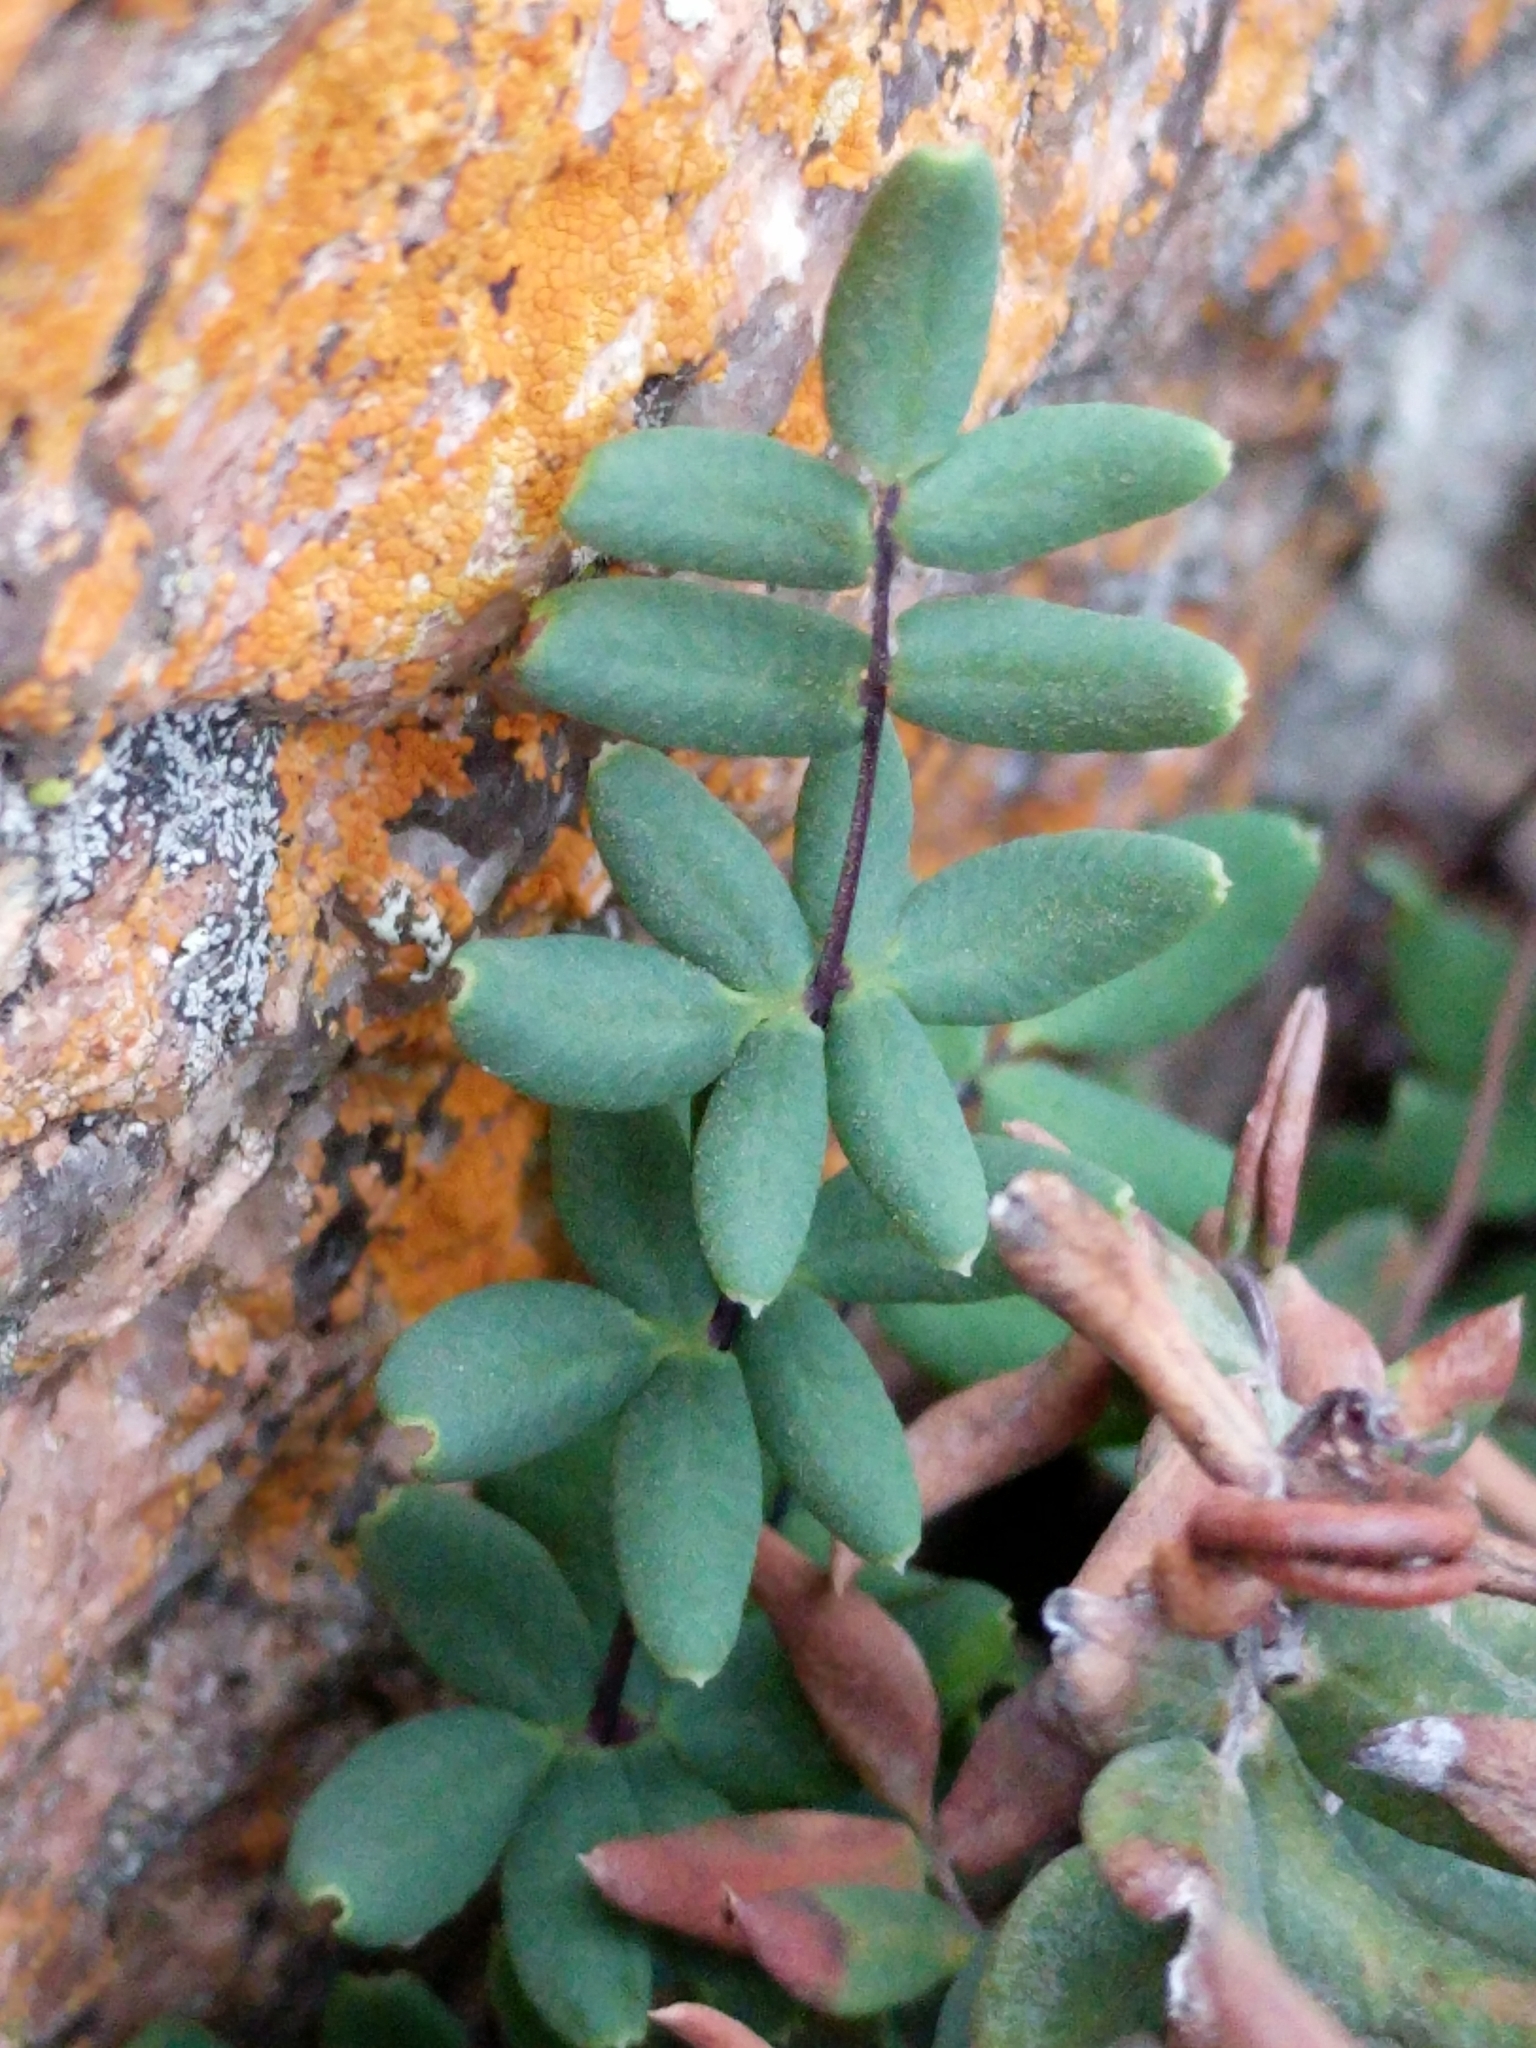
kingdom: Plantae
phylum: Tracheophyta
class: Polypodiopsida
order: Polypodiales
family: Pteridaceae
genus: Pellaea
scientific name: Pellaea wrightiana
